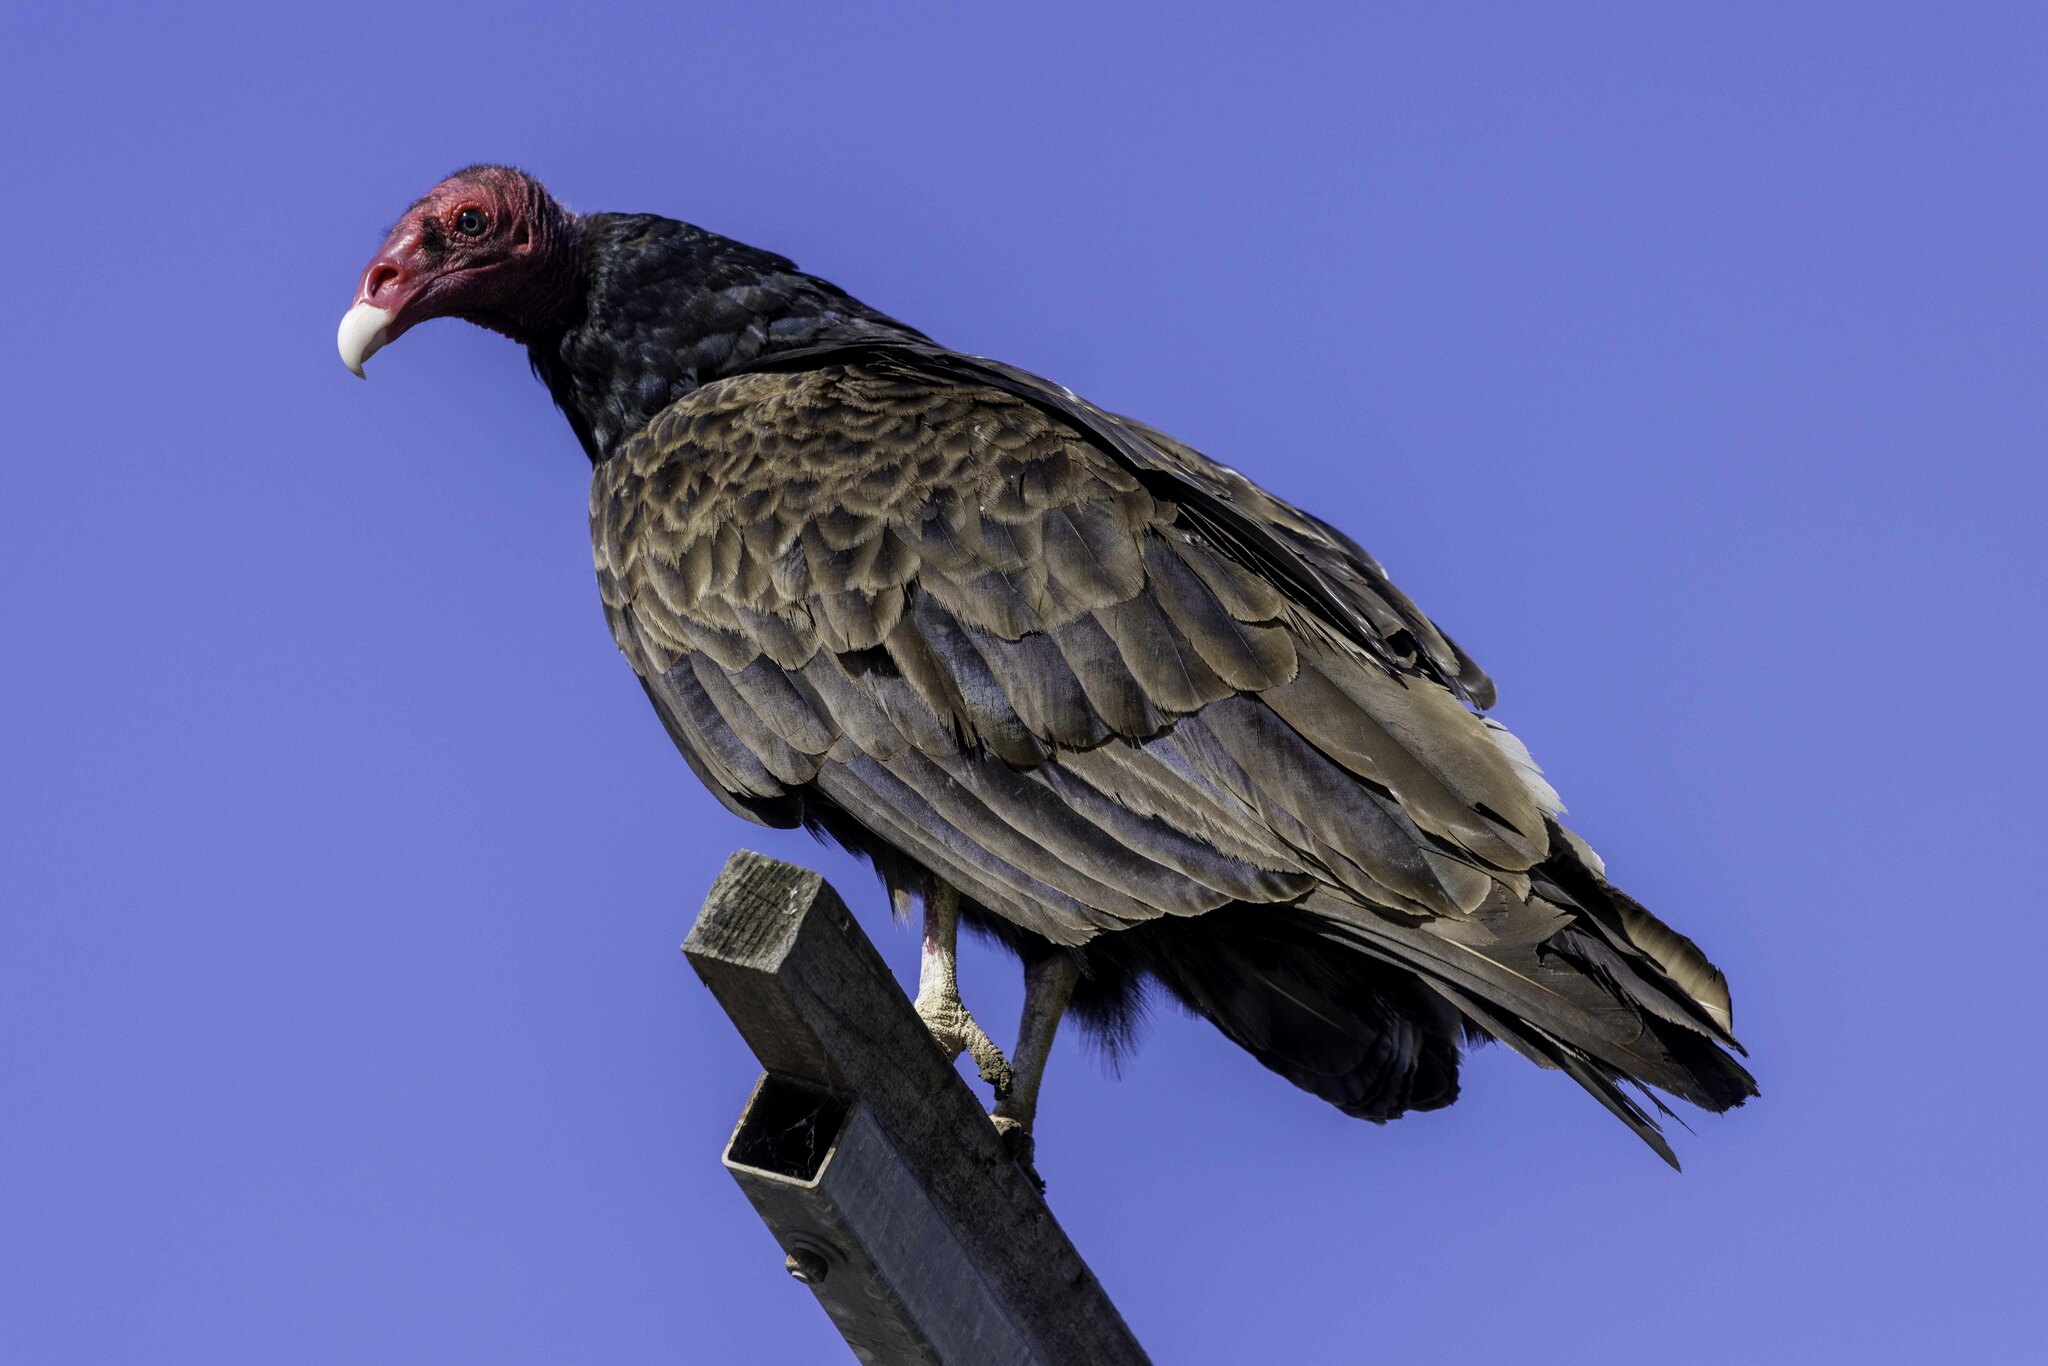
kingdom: Animalia
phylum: Chordata
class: Aves
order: Accipitriformes
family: Cathartidae
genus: Cathartes
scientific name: Cathartes aura
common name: Turkey vulture
